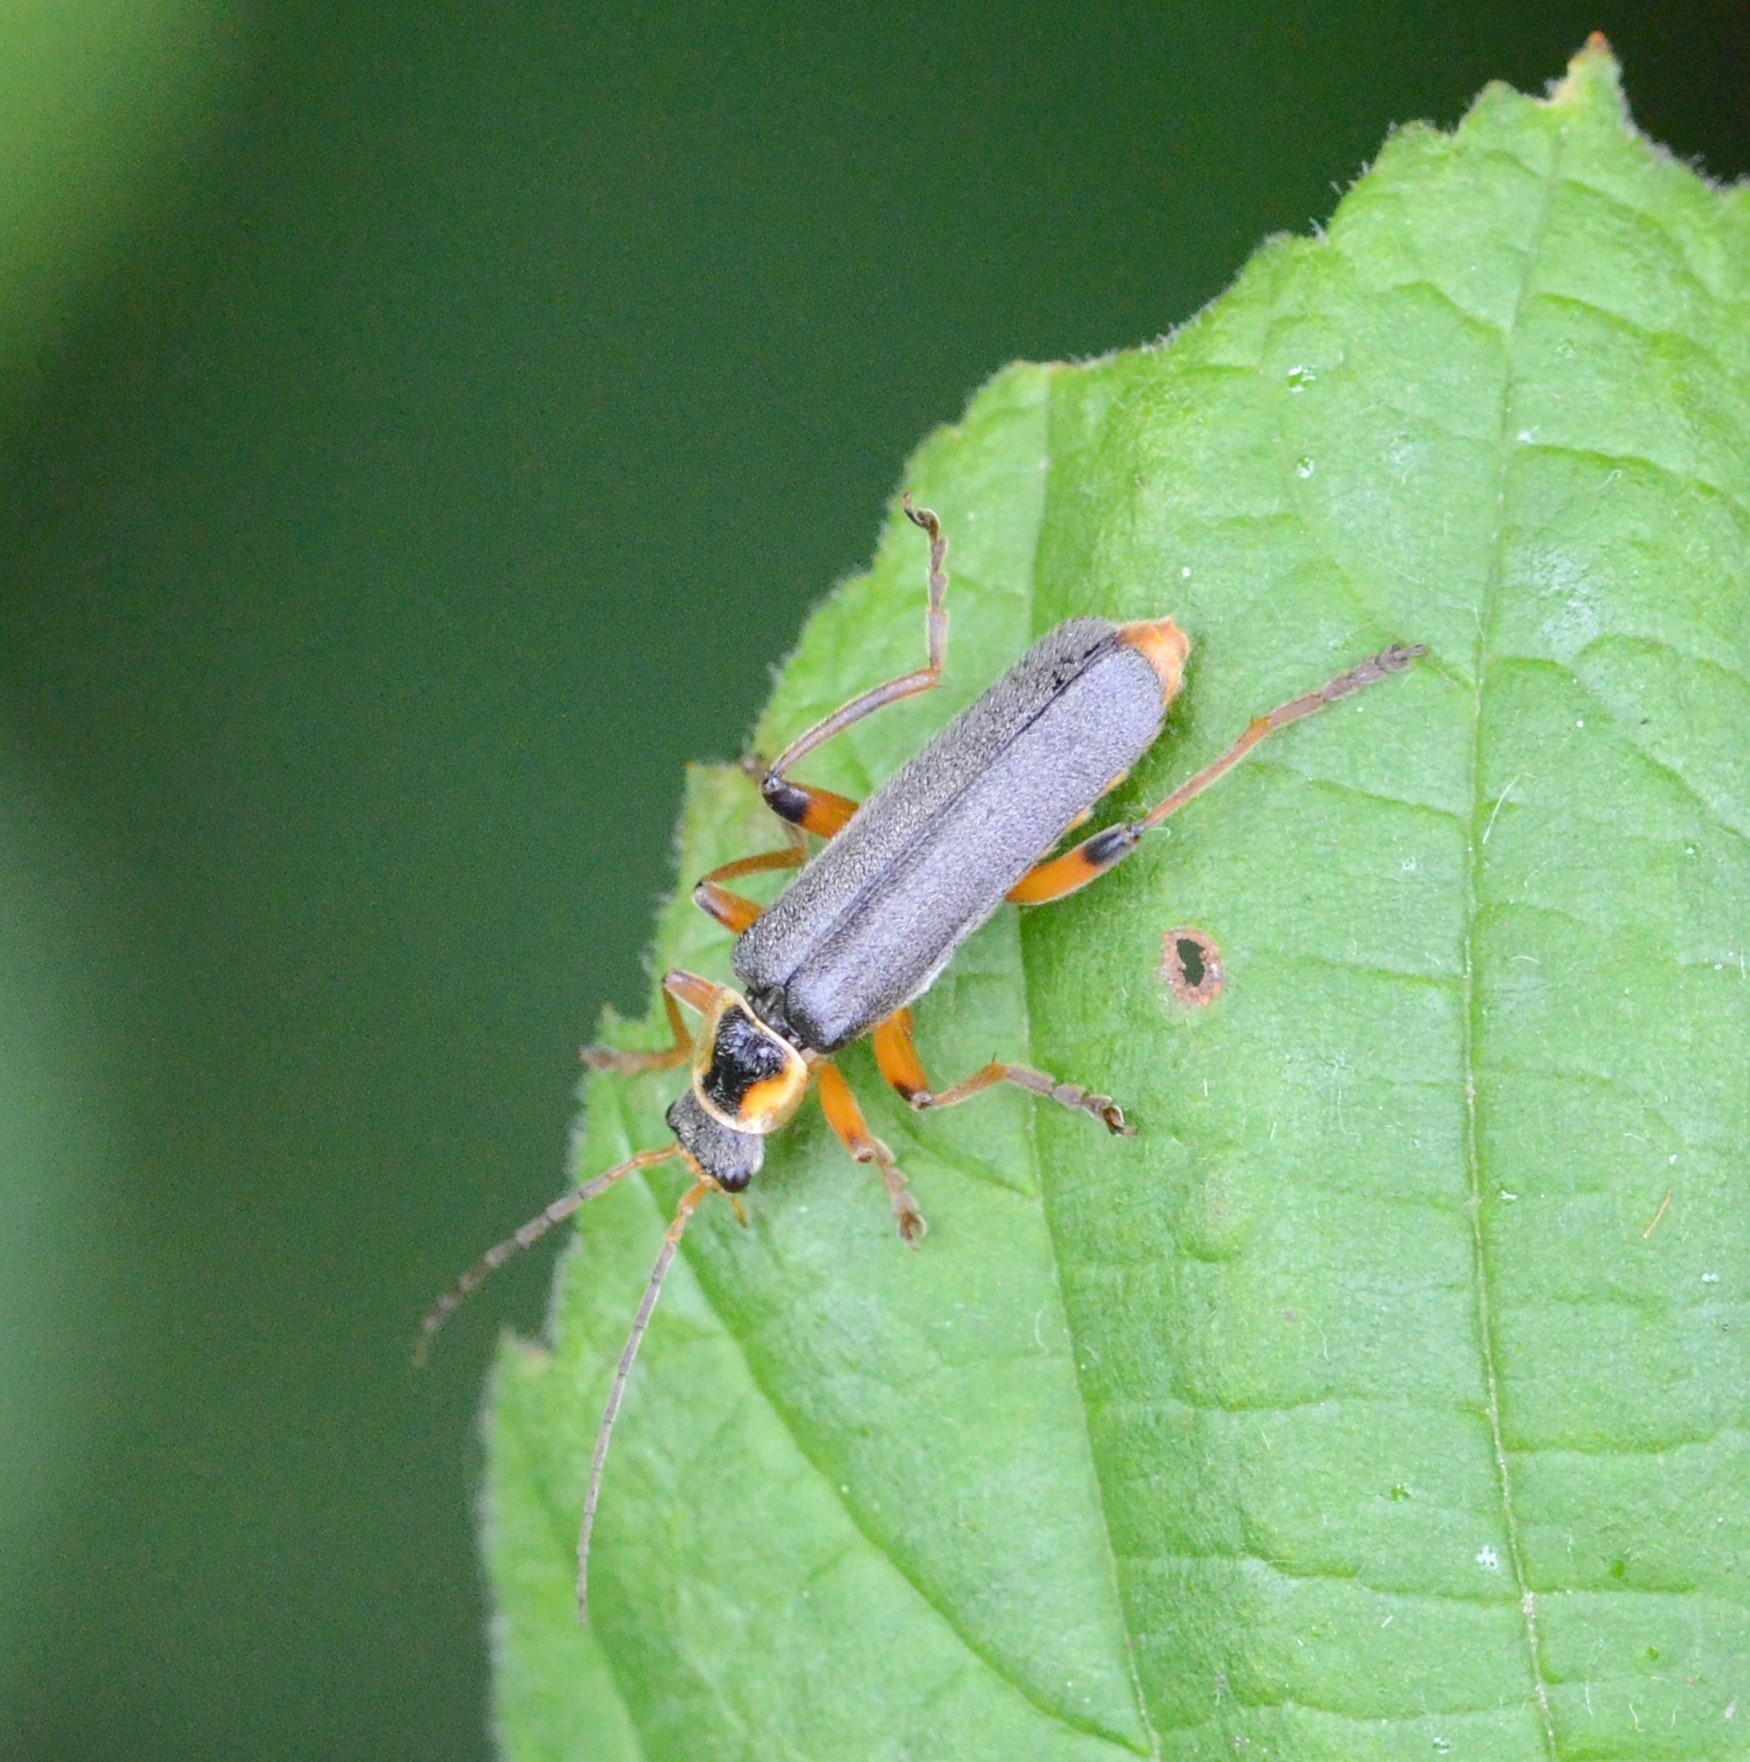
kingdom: Animalia
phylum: Arthropoda
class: Insecta
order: Coleoptera
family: Cantharidae
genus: Cantharis
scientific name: Cantharis nigricans
